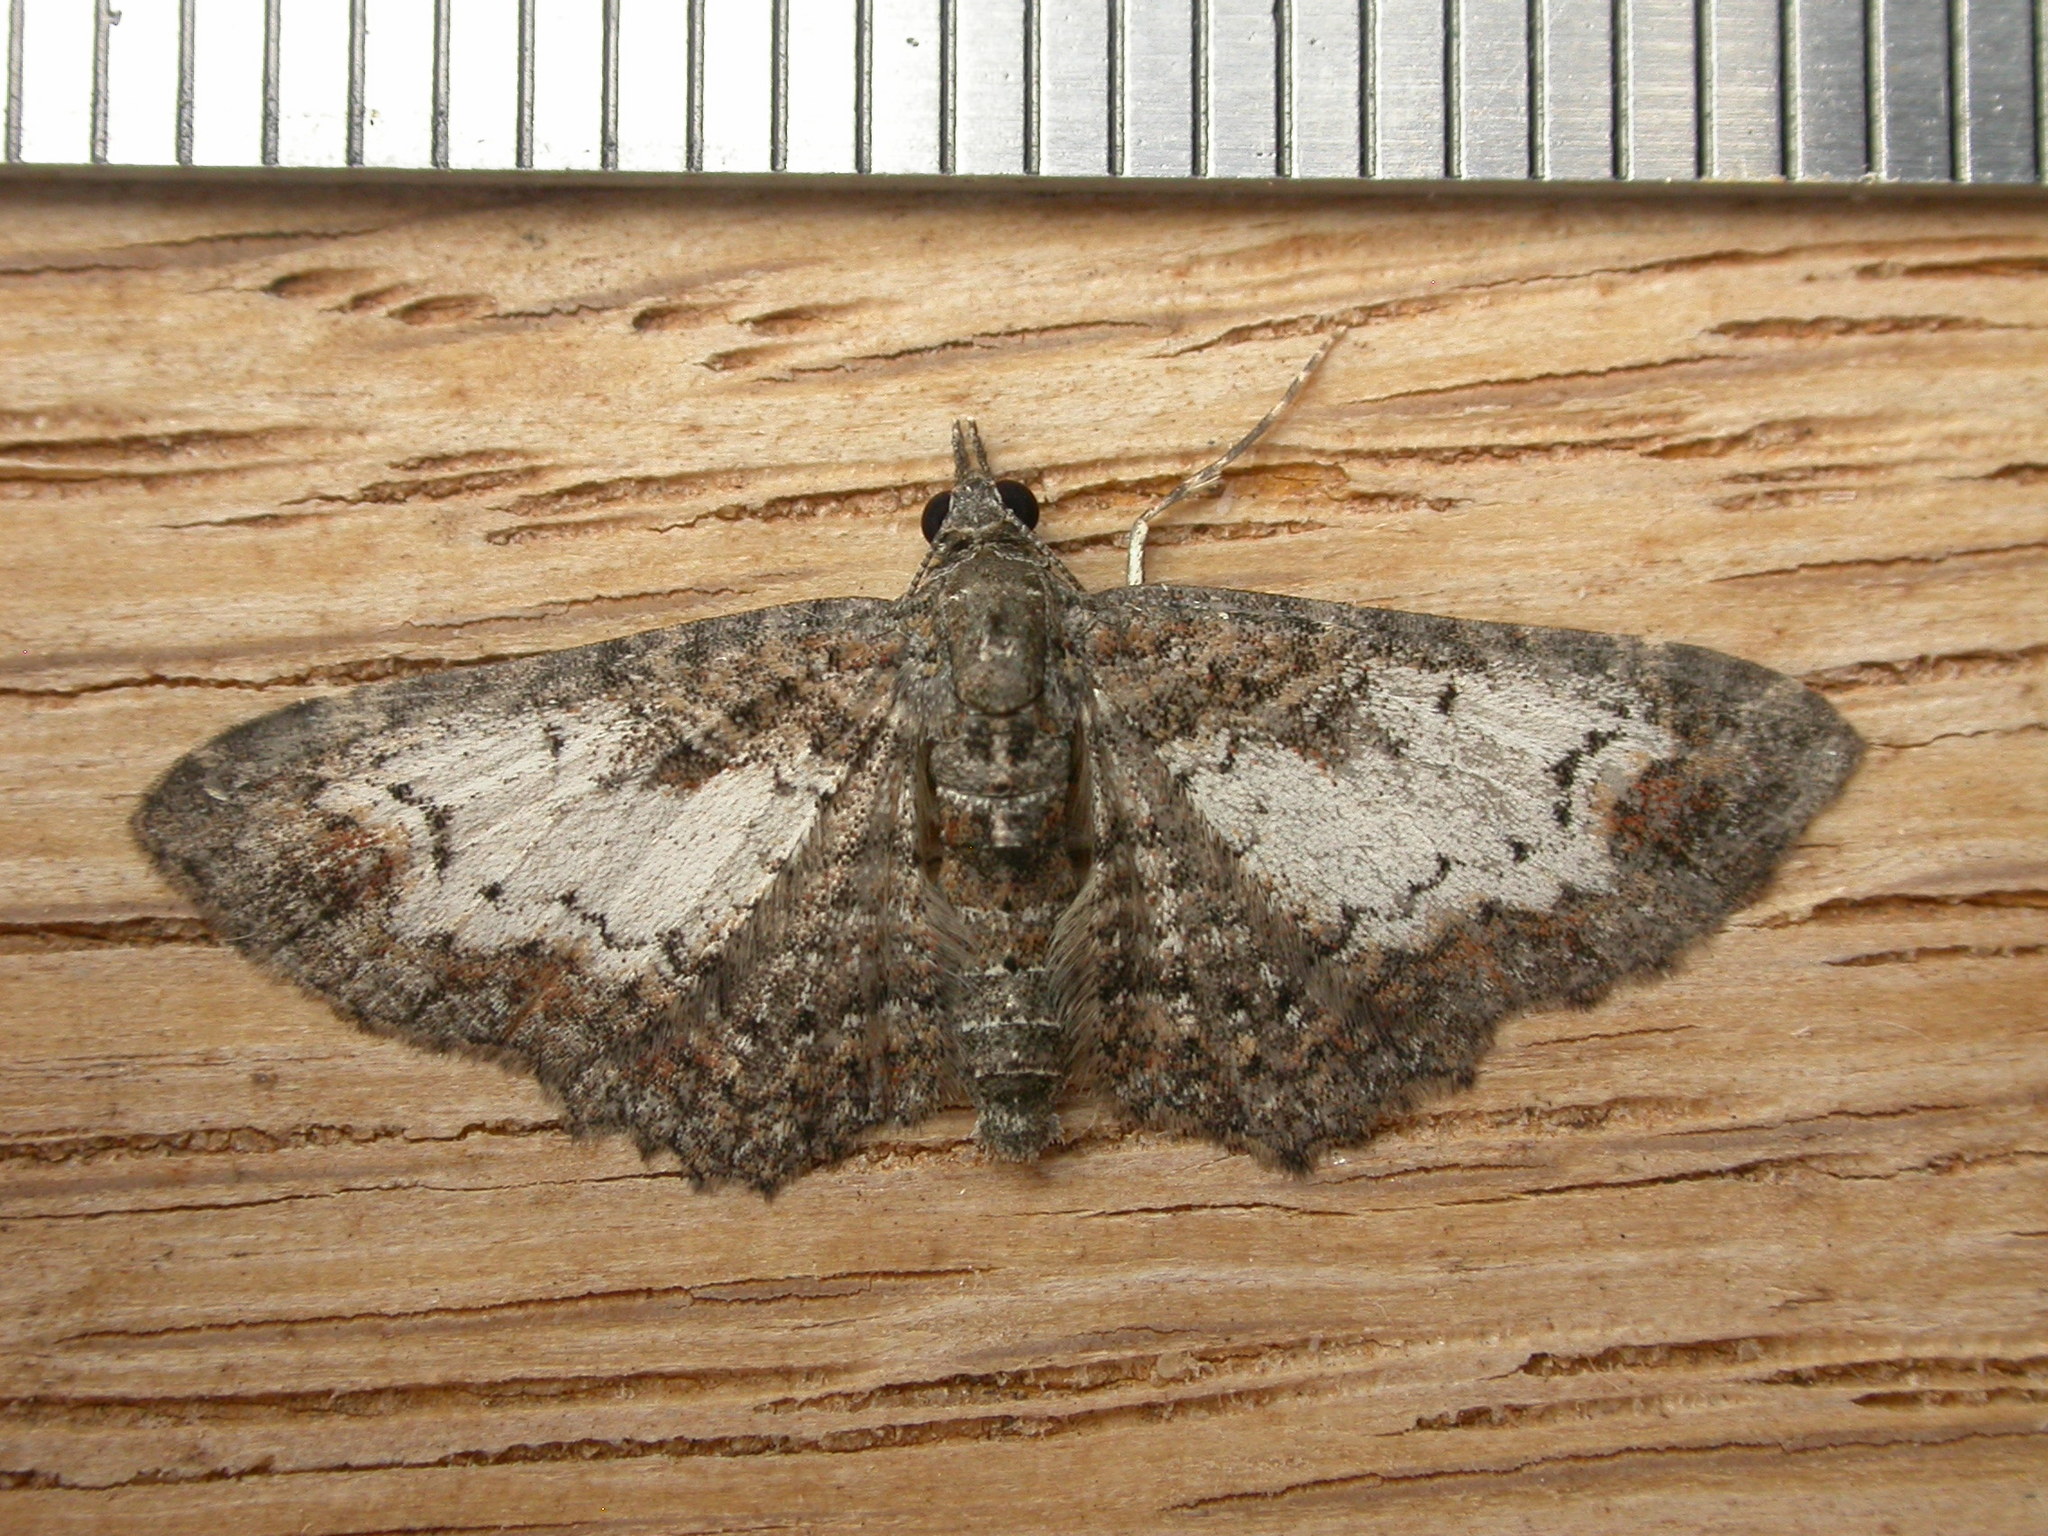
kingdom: Animalia
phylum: Arthropoda
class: Insecta
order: Lepidoptera
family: Geometridae
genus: Pasiphilodes
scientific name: Pasiphilodes testulata
